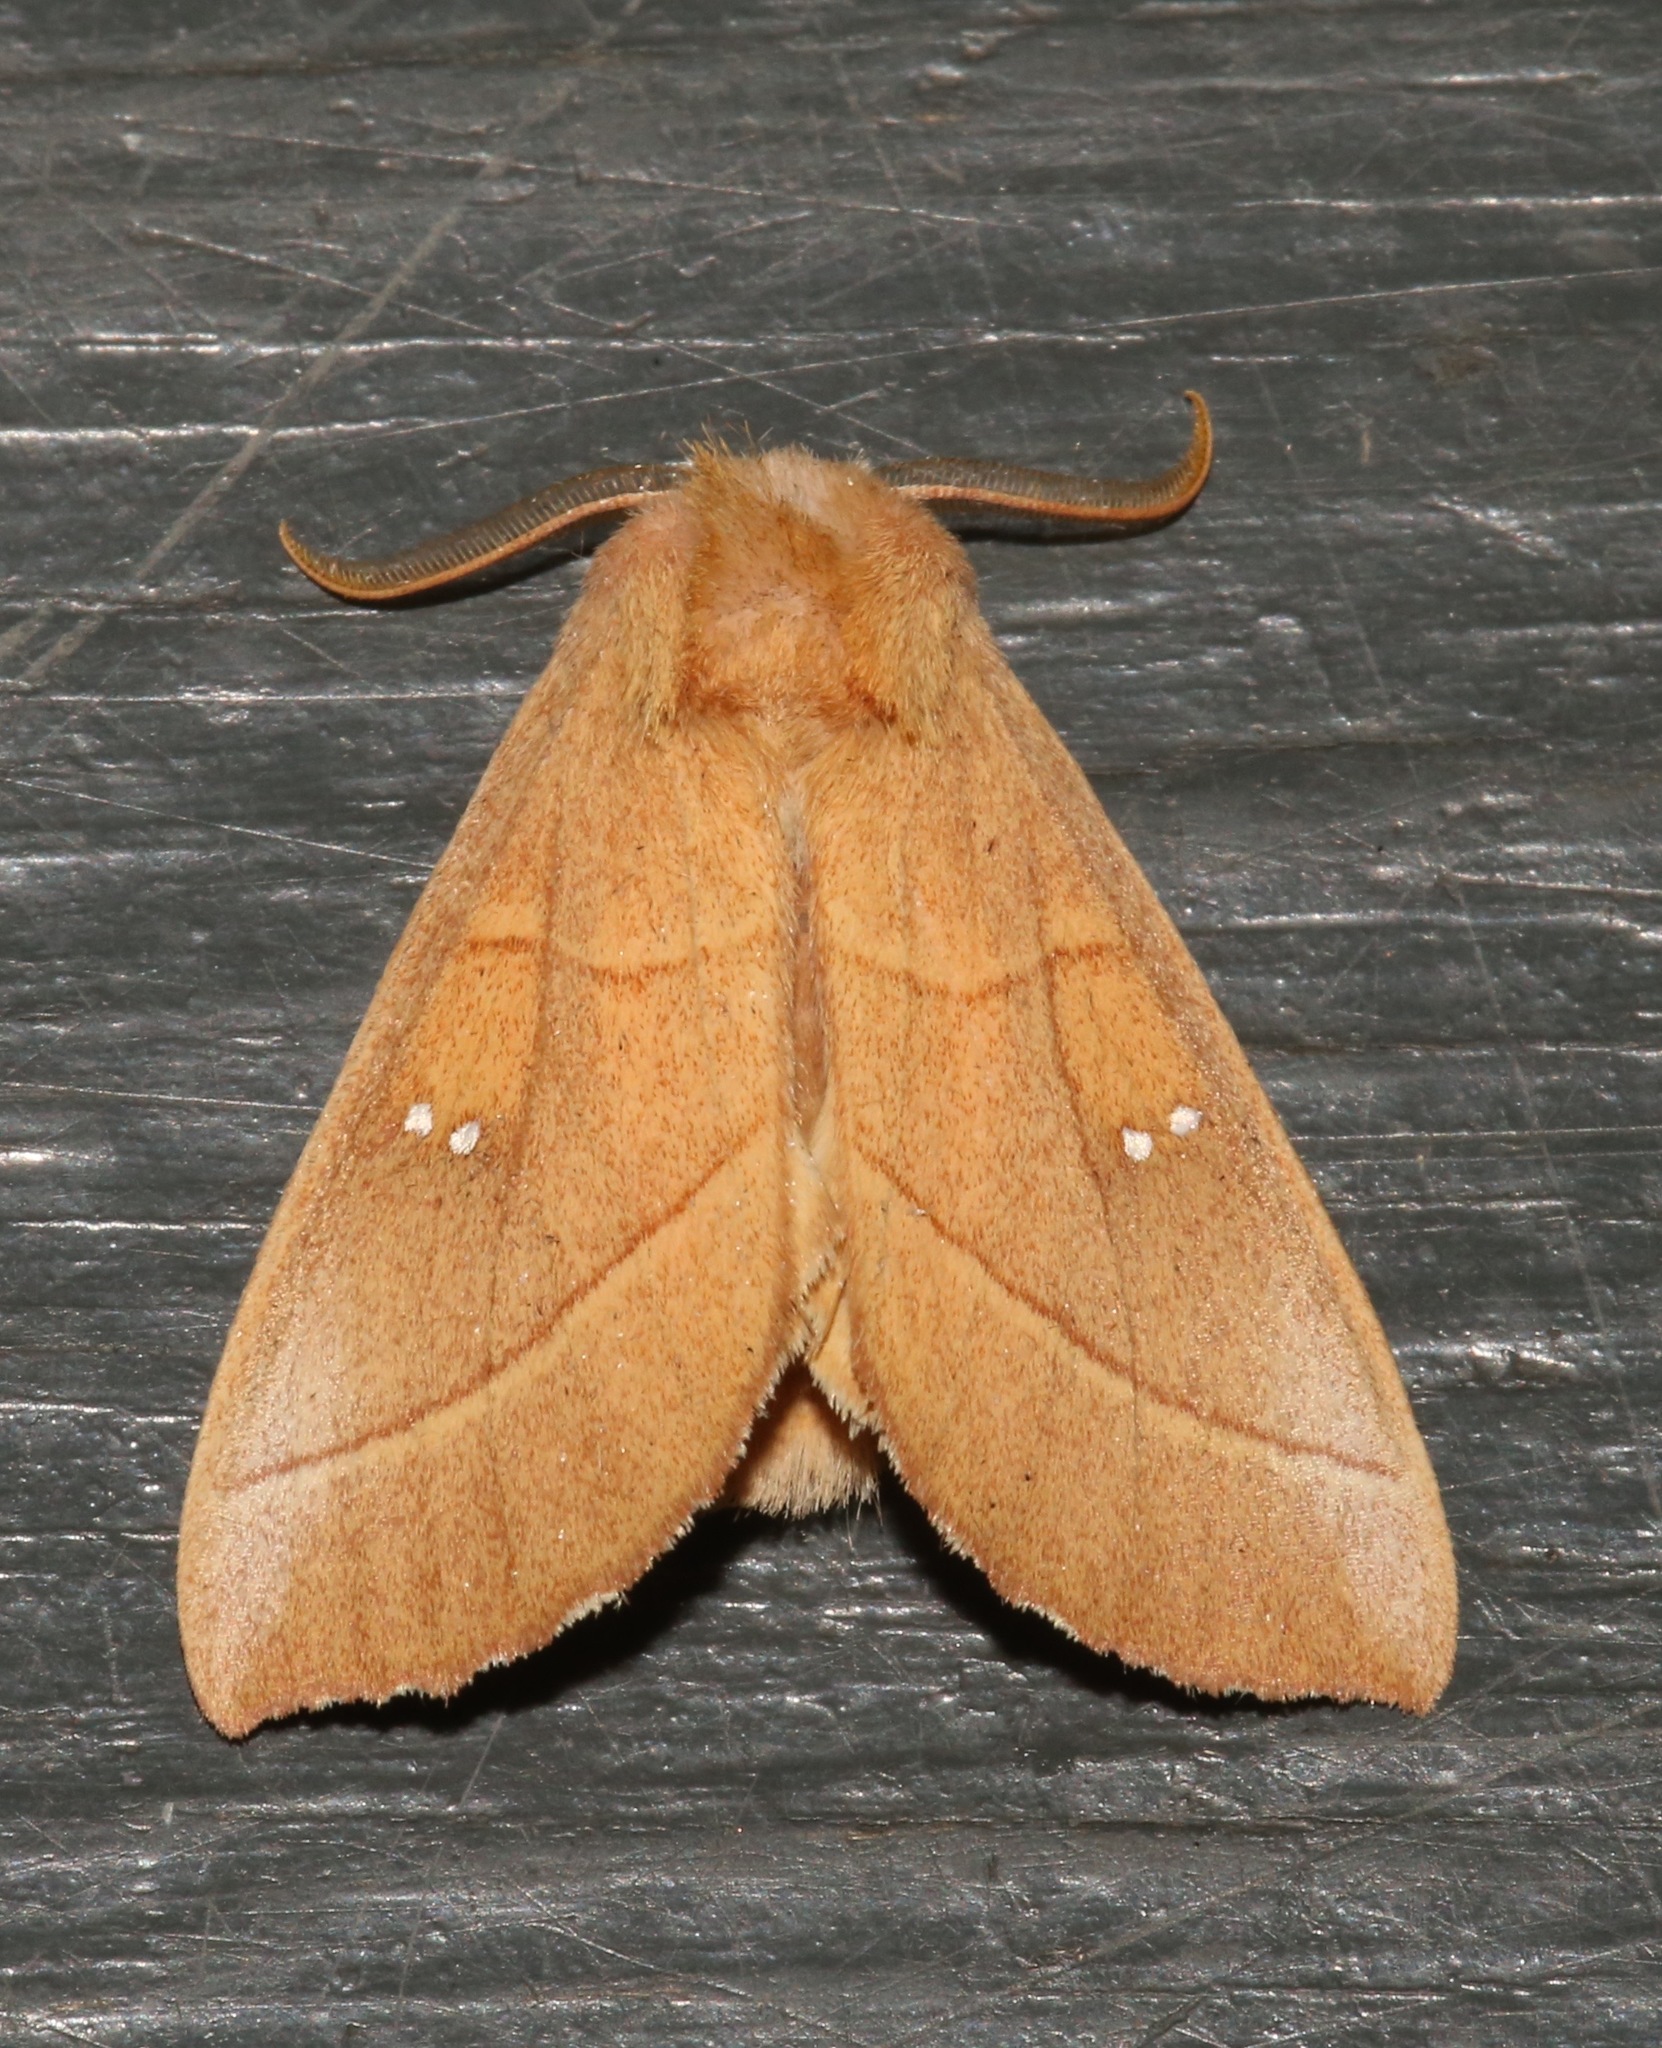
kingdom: Animalia
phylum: Arthropoda
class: Insecta
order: Lepidoptera
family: Notodontidae
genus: Nadata
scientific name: Nadata gibbosa
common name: White-dotted prominent
